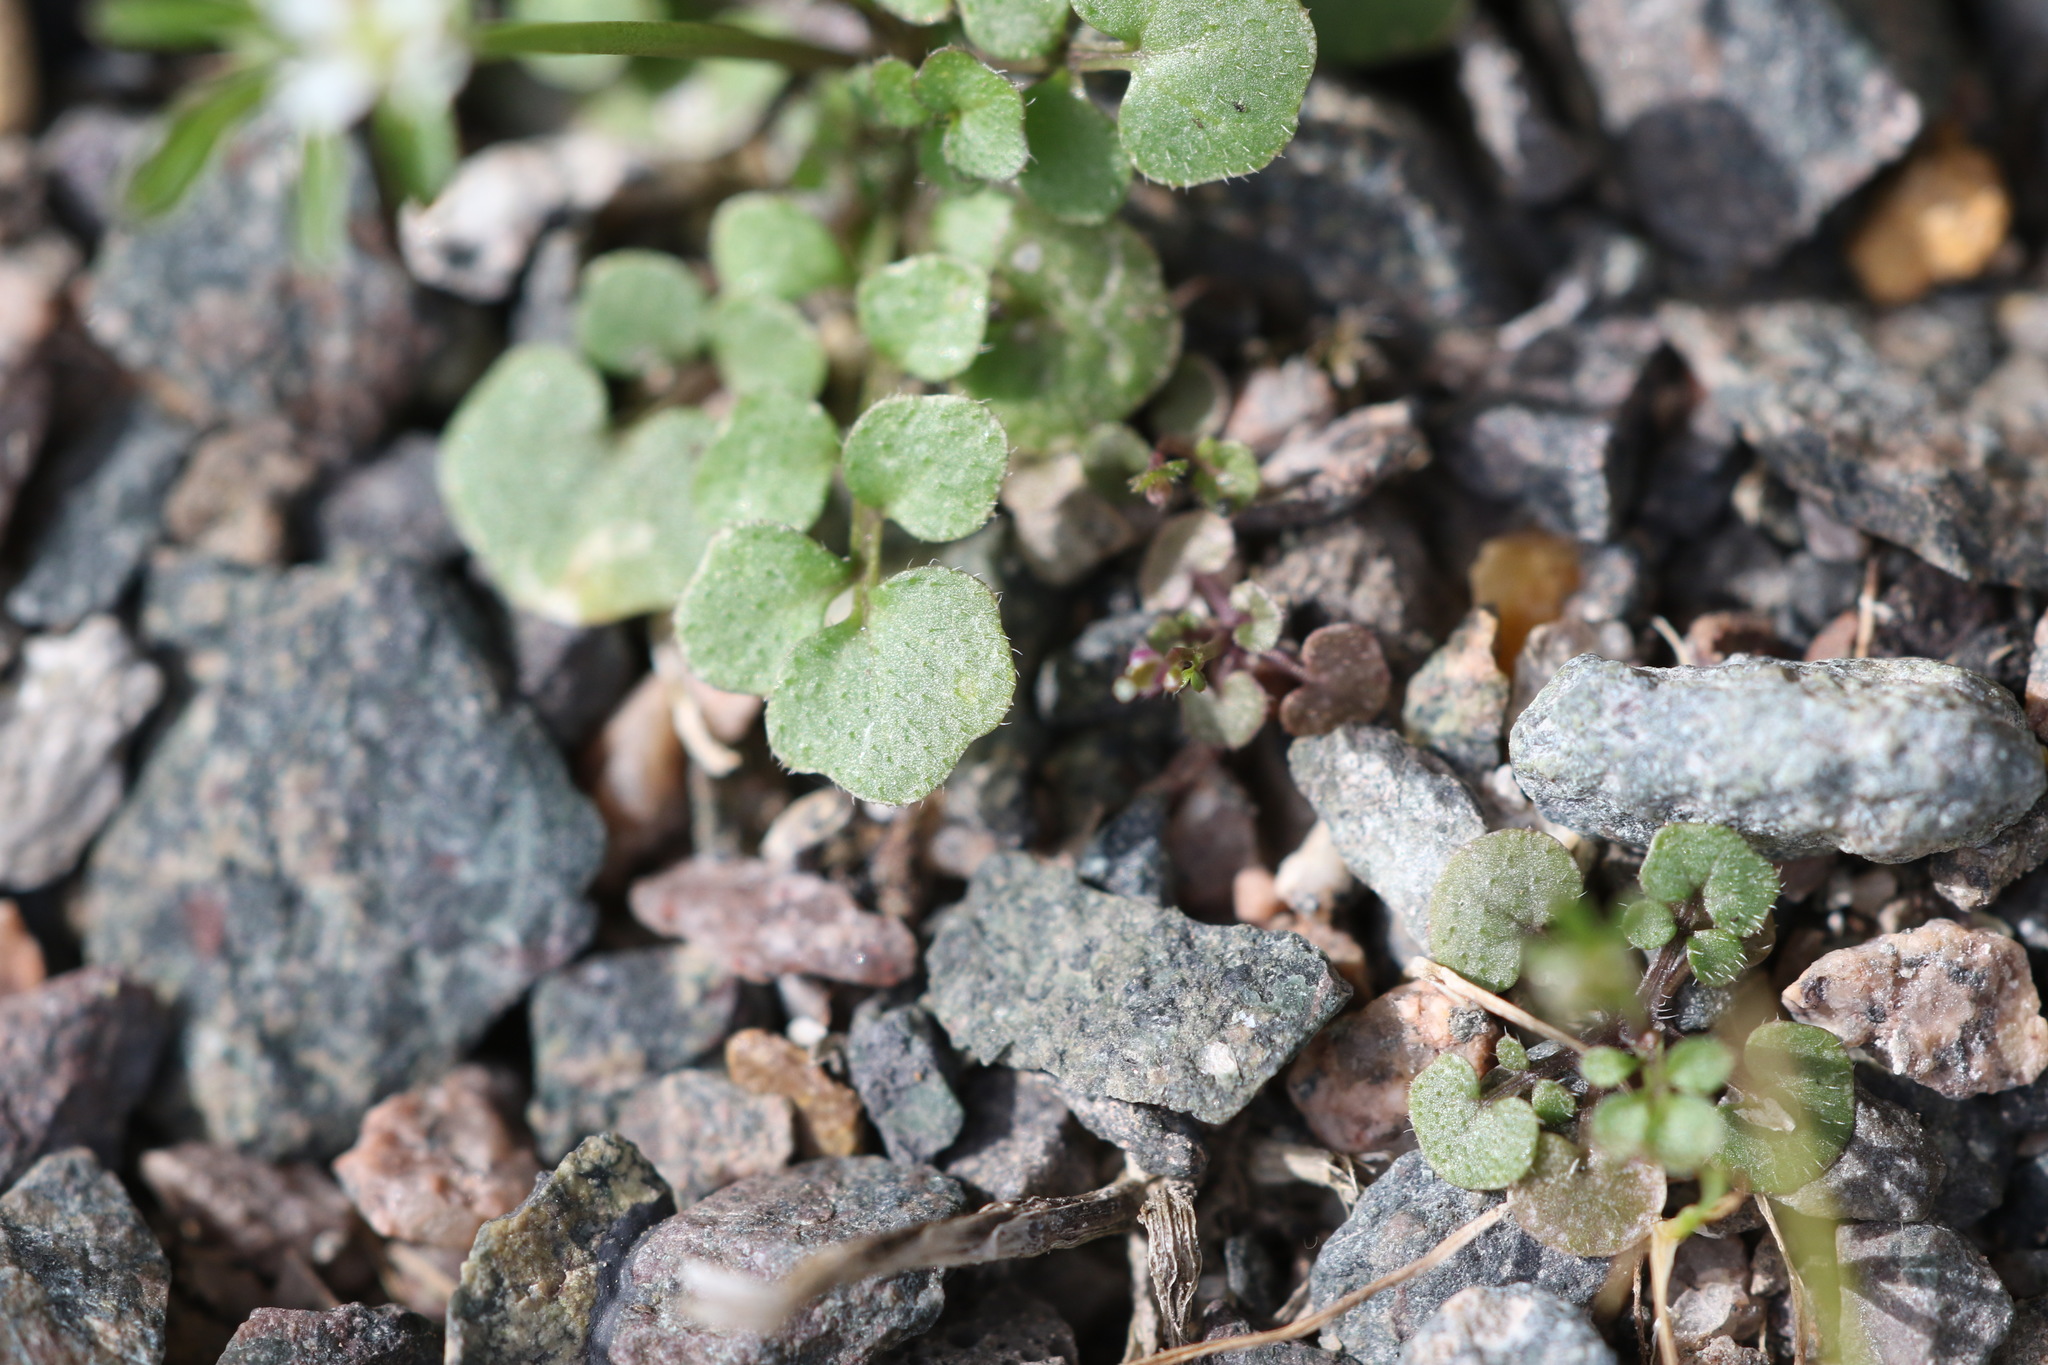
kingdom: Plantae
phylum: Tracheophyta
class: Magnoliopsida
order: Brassicales
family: Brassicaceae
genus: Cardamine
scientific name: Cardamine hirsuta
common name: Hairy bittercress
